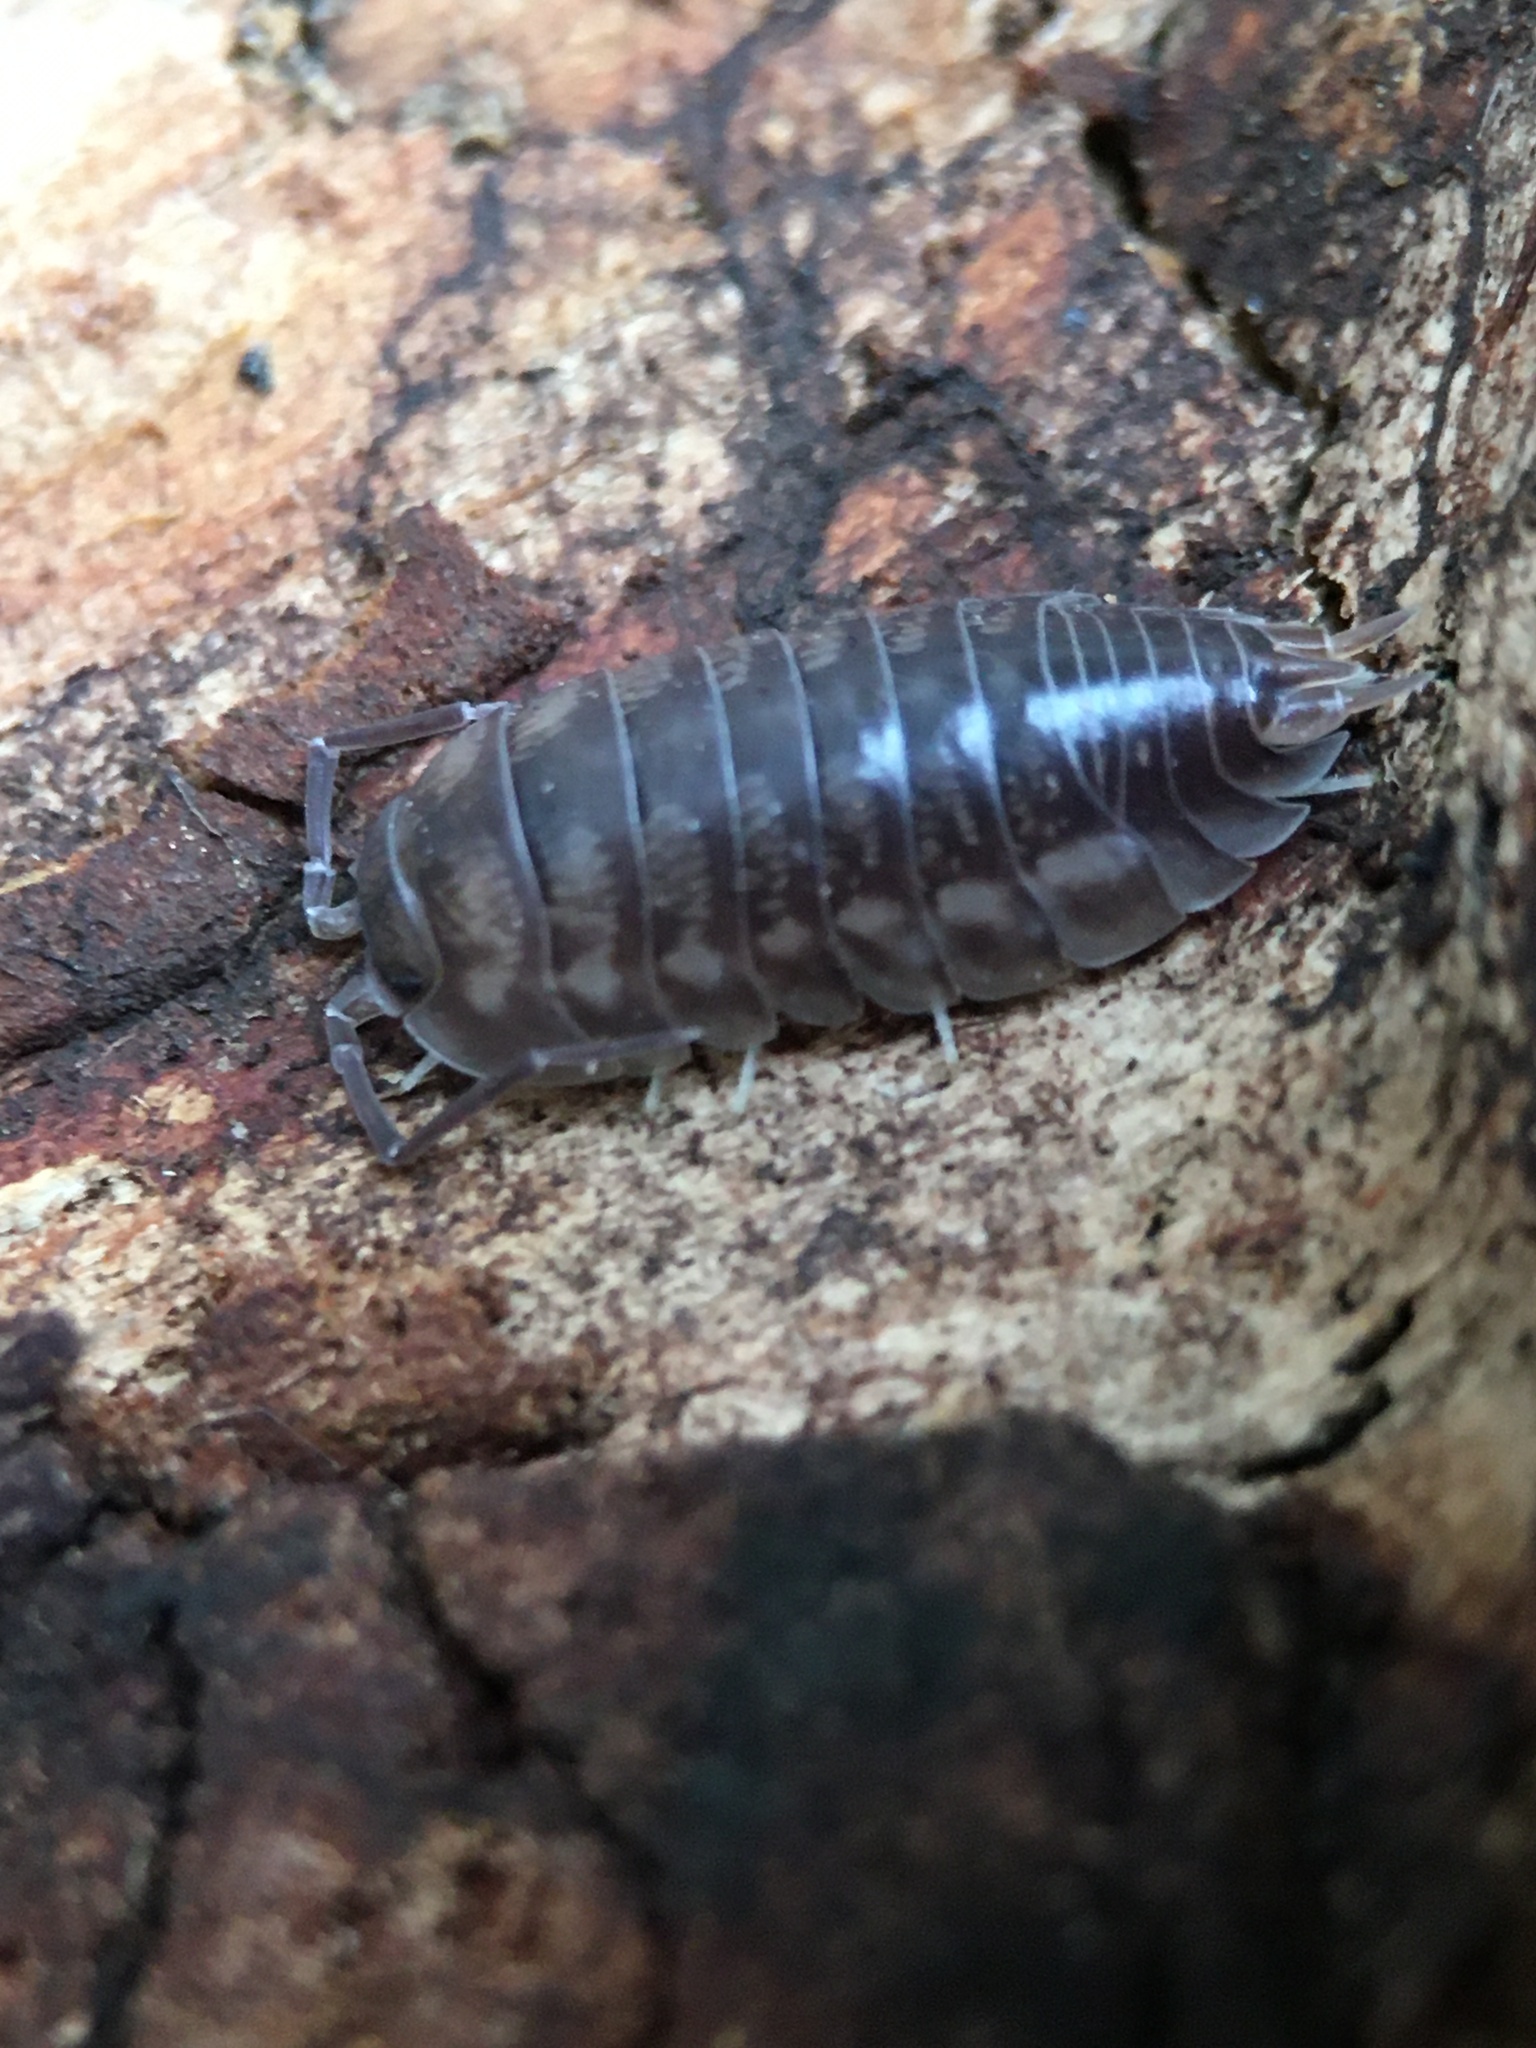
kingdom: Animalia
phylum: Arthropoda
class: Malacostraca
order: Isopoda
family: Cylisticidae
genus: Cylisticus
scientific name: Cylisticus convexus
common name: Curly woodlouse
